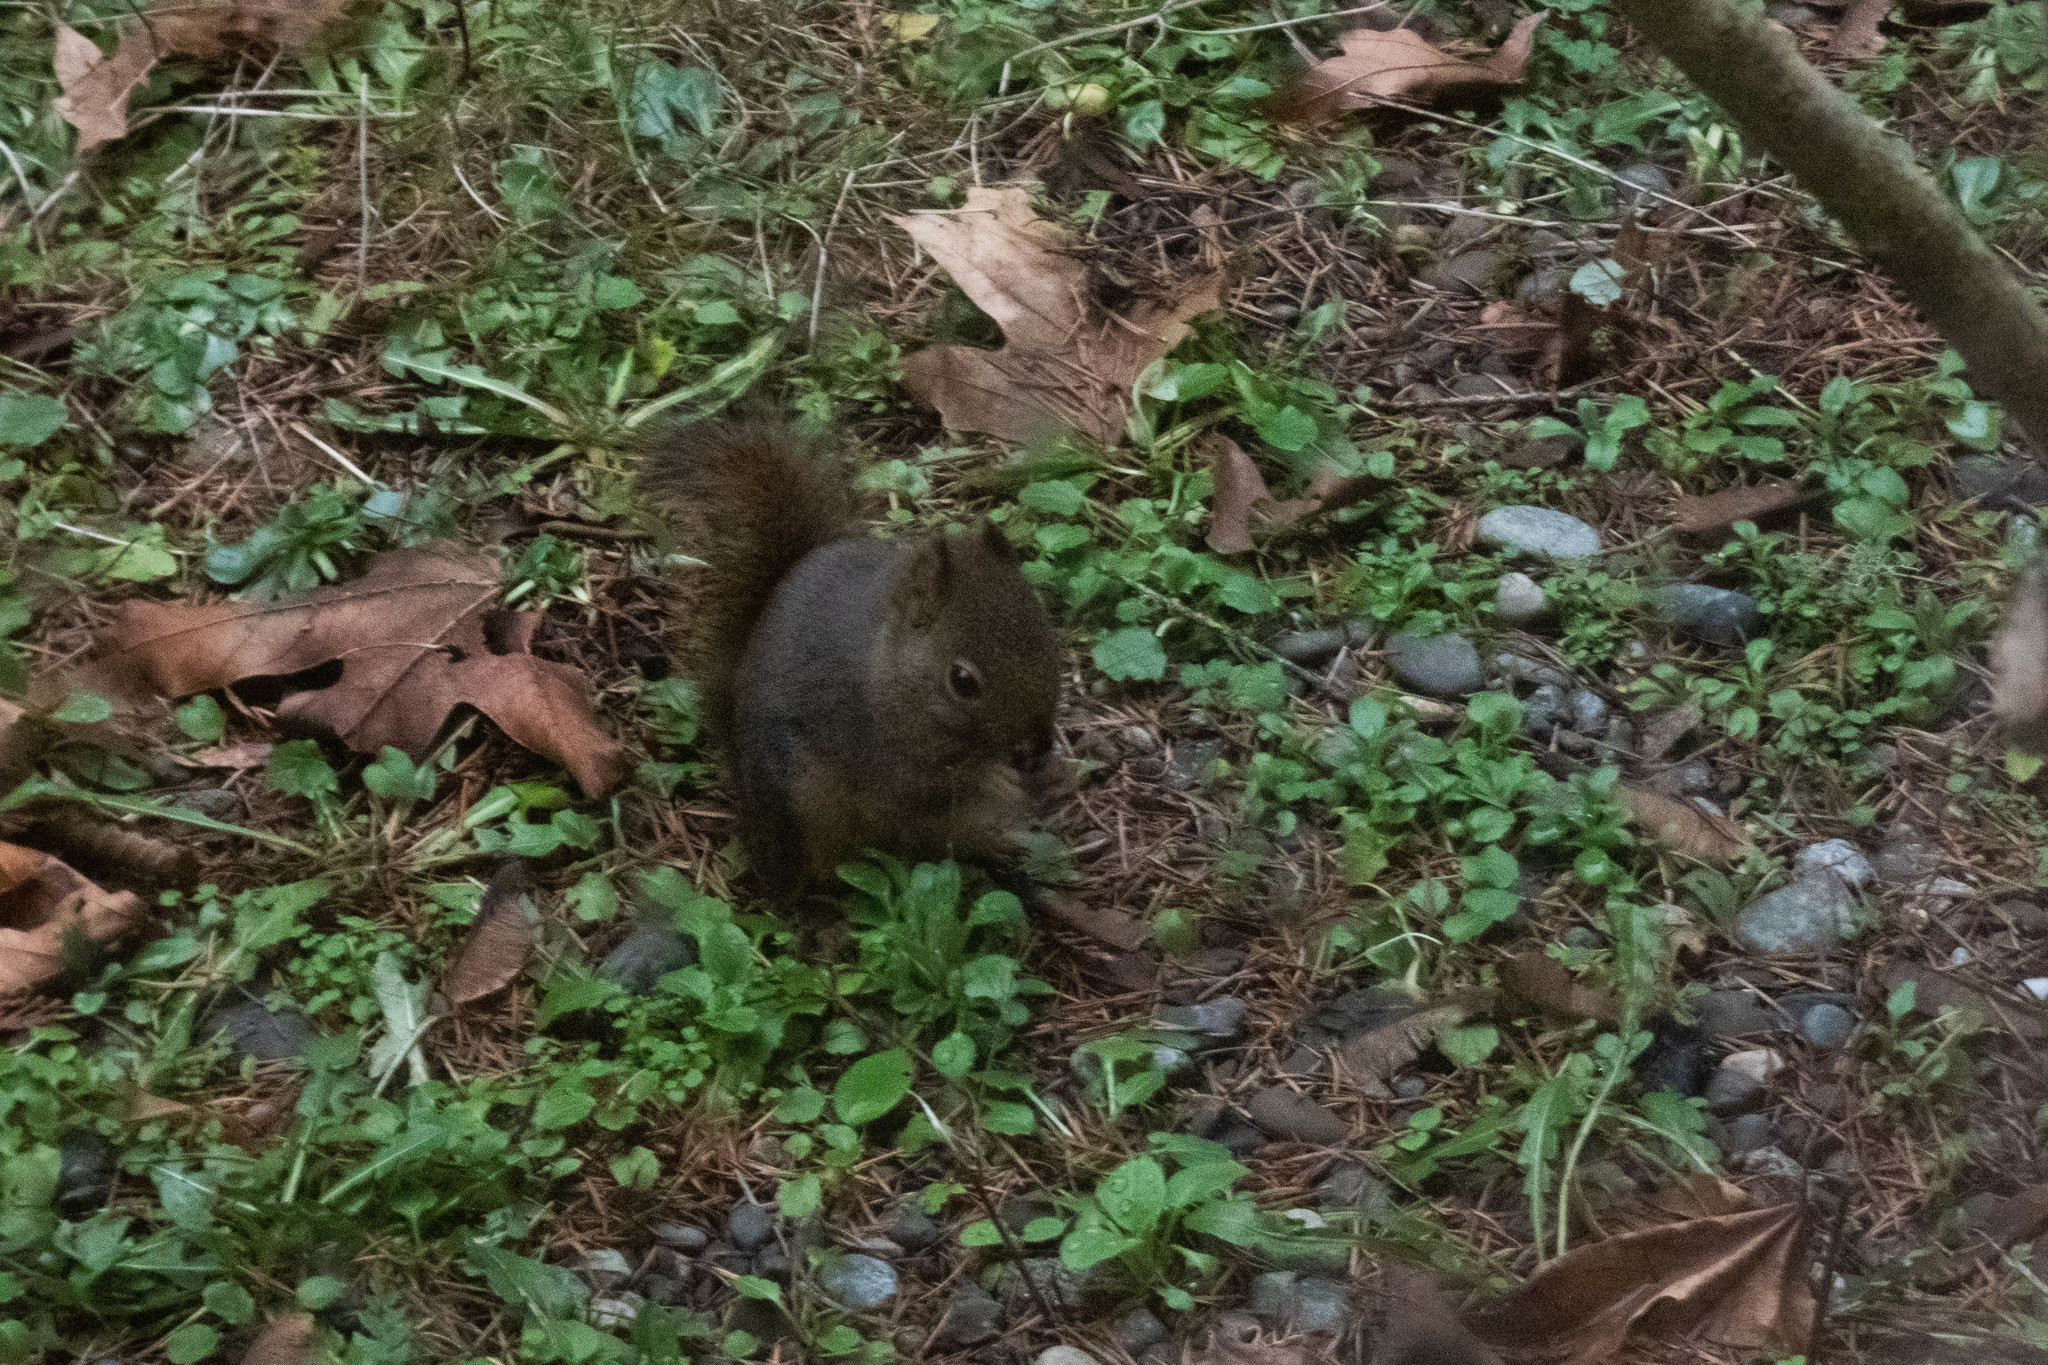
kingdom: Animalia
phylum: Chordata
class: Mammalia
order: Rodentia
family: Sciuridae
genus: Tamiasciurus
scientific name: Tamiasciurus douglasii
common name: Douglas's squirrel
